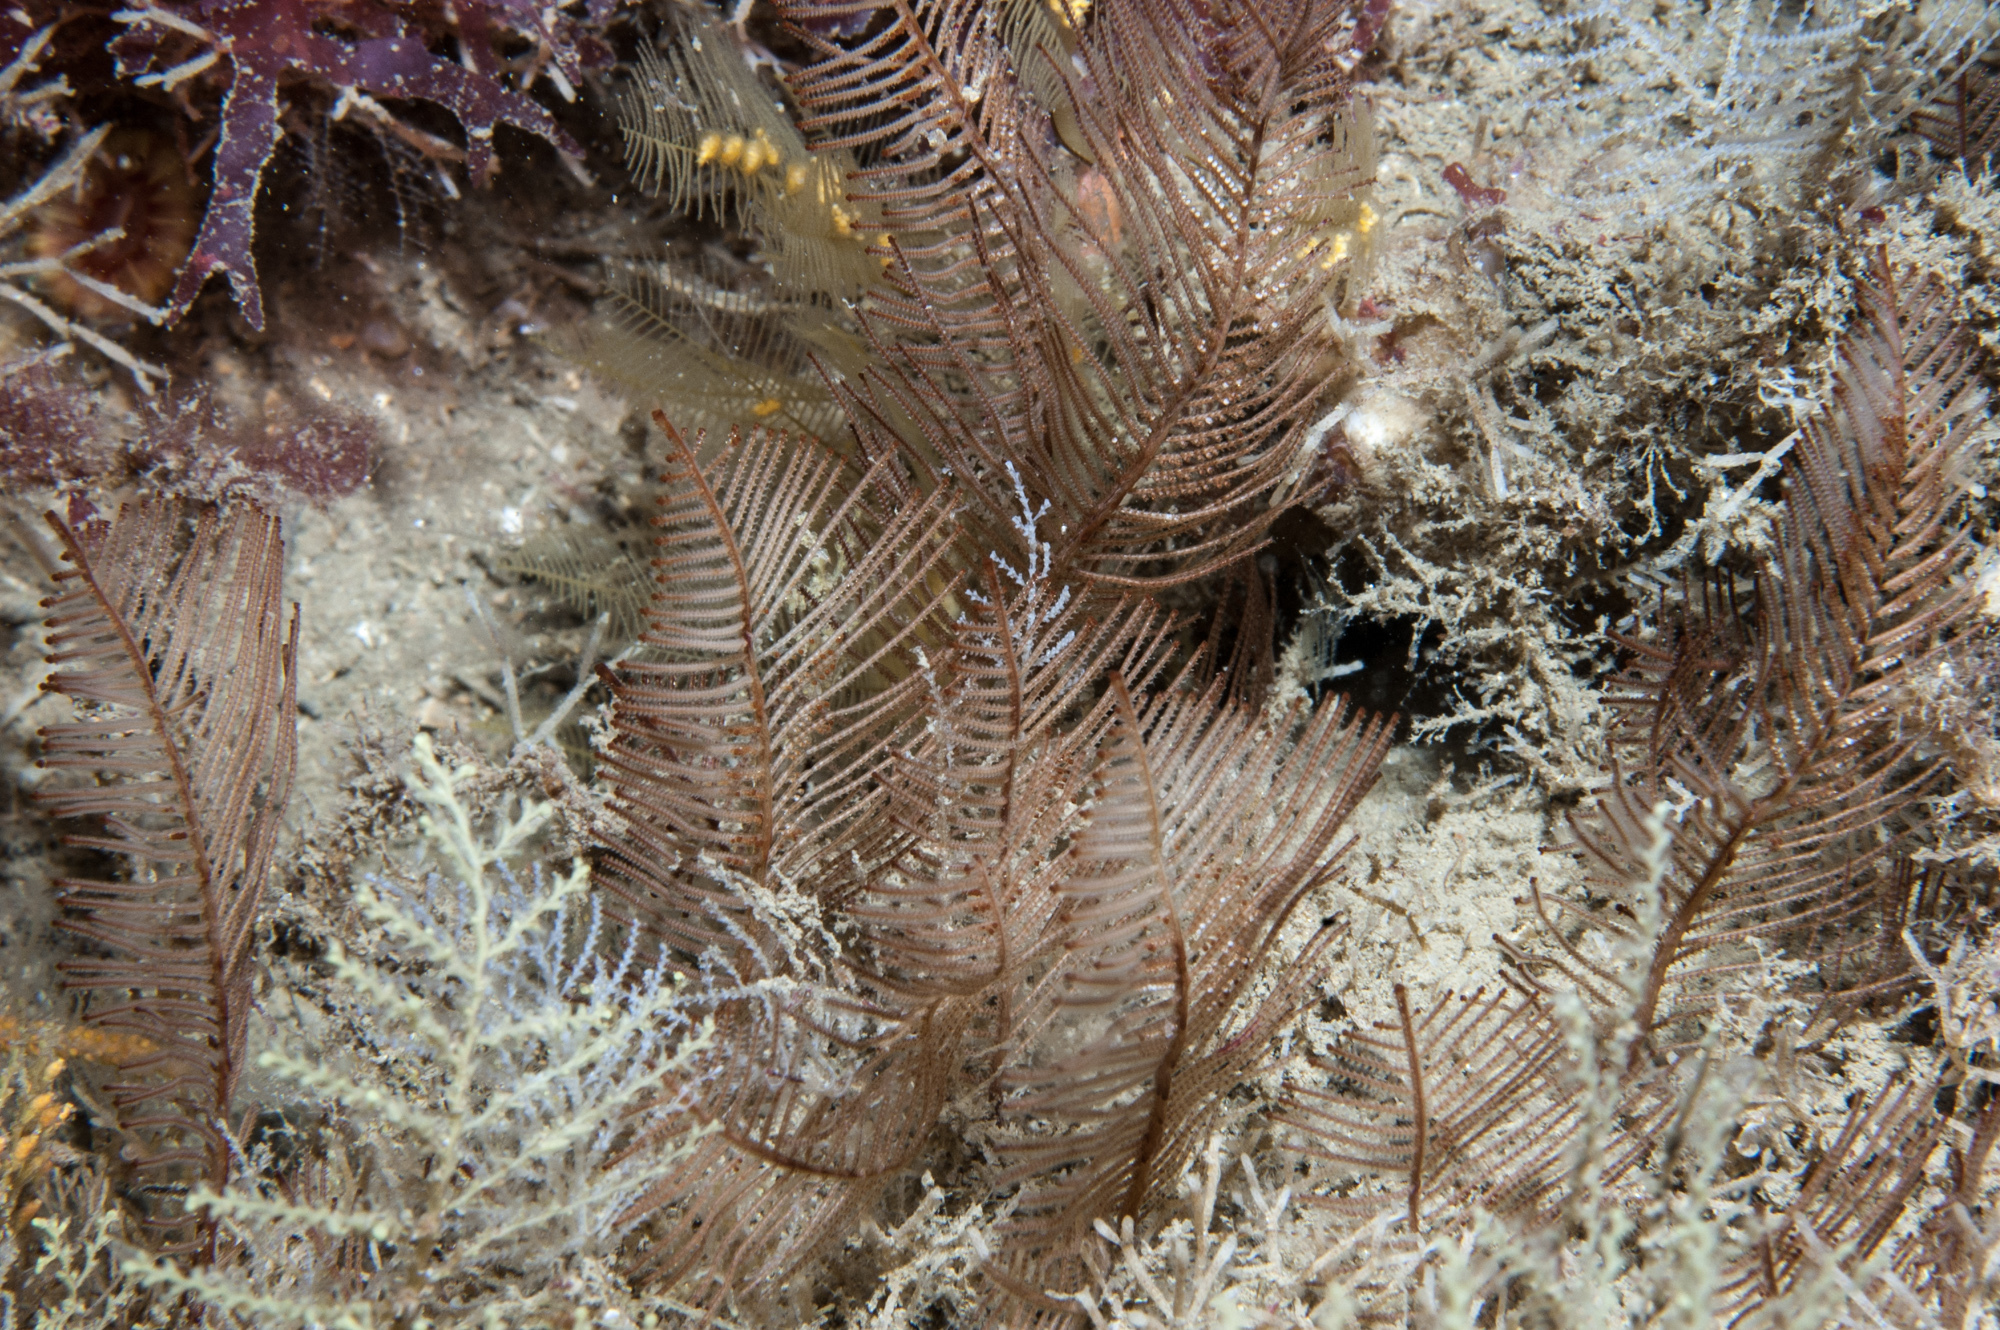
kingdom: Animalia
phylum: Cnidaria
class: Hydrozoa
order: Leptothecata
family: Sertulariidae
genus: Diphasia
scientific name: Diphasia alata
